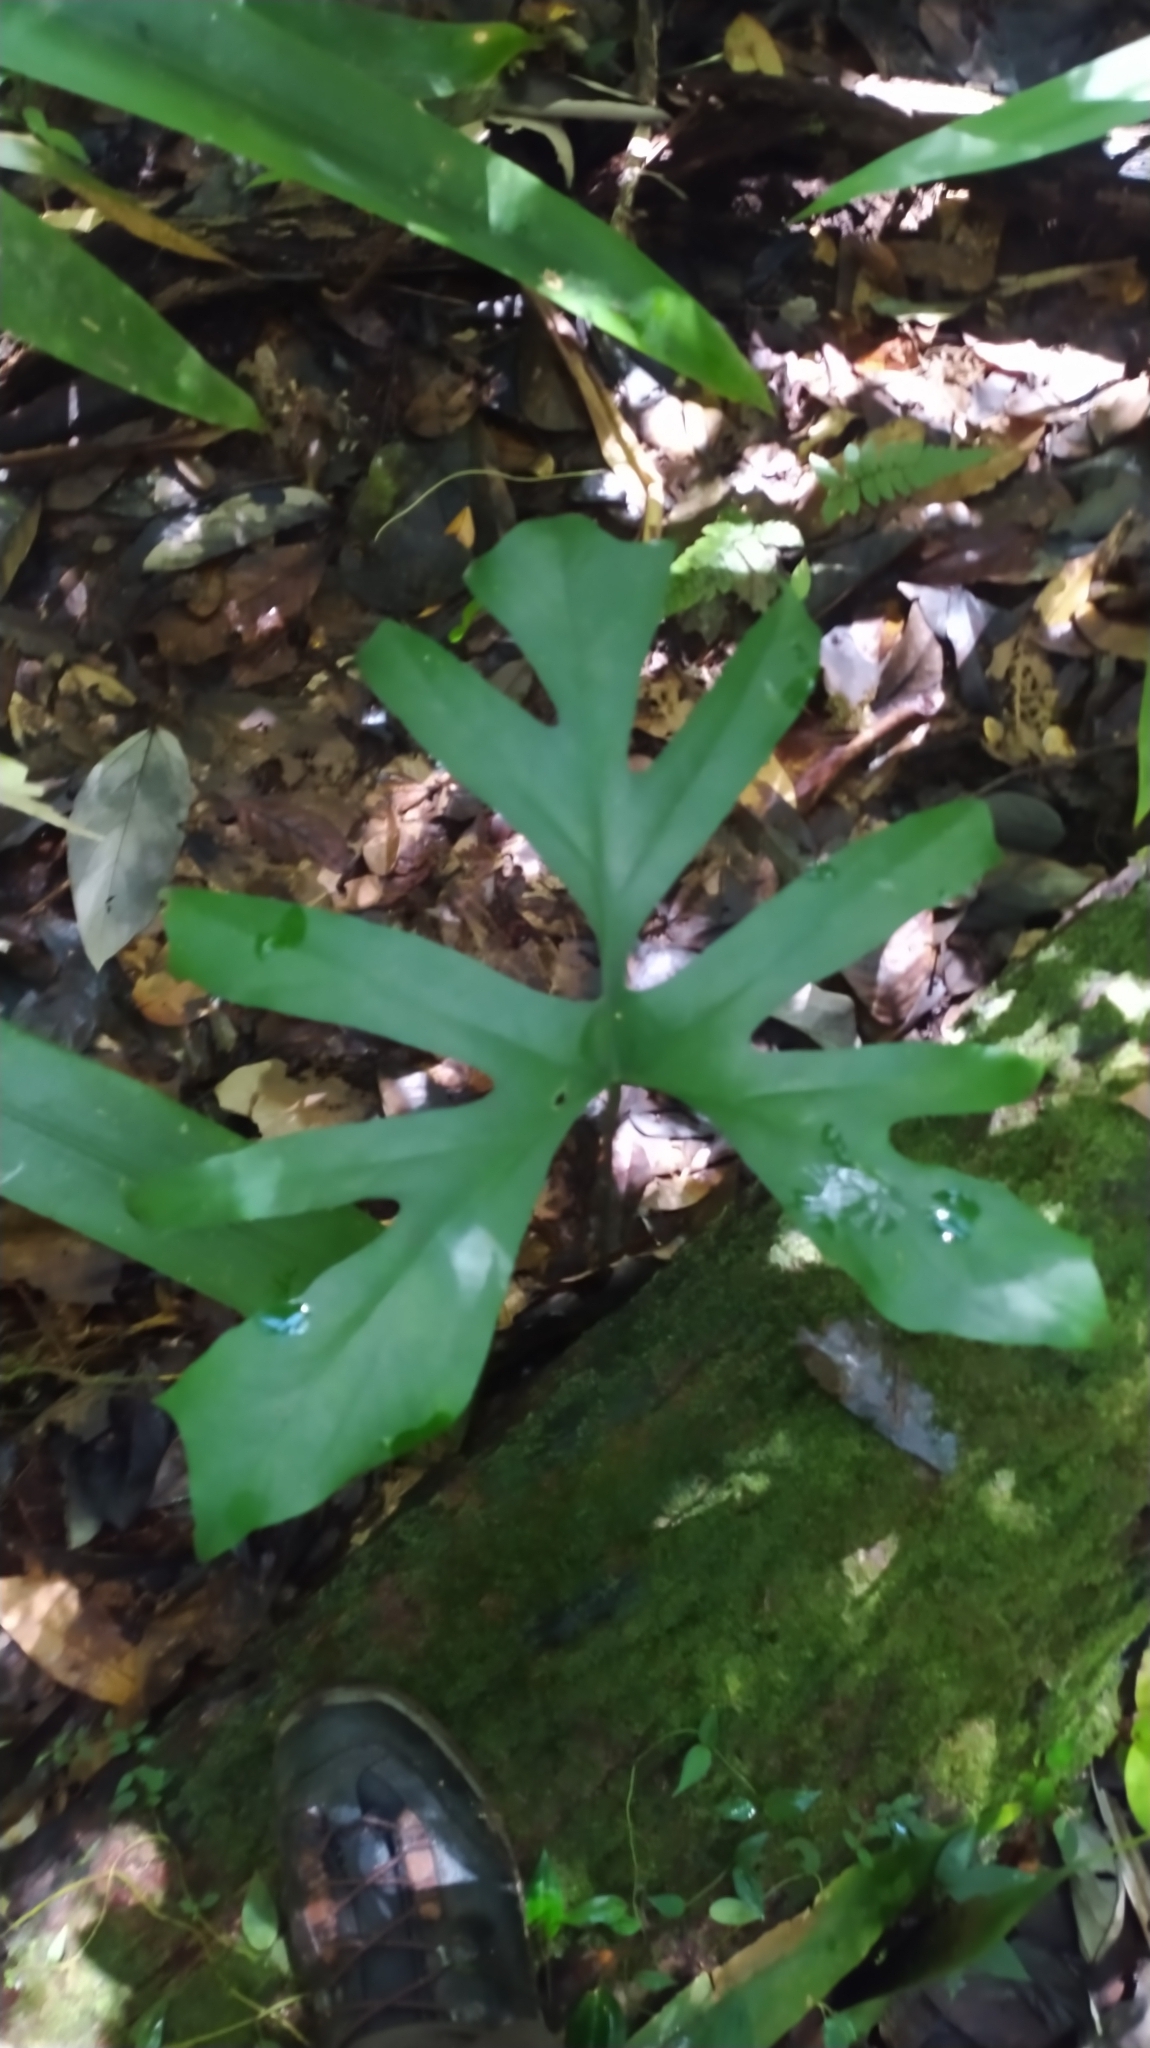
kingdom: Plantae
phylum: Tracheophyta
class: Liliopsida
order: Alismatales
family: Araceae
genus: Anaphyllopsis
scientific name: Anaphyllopsis americana
